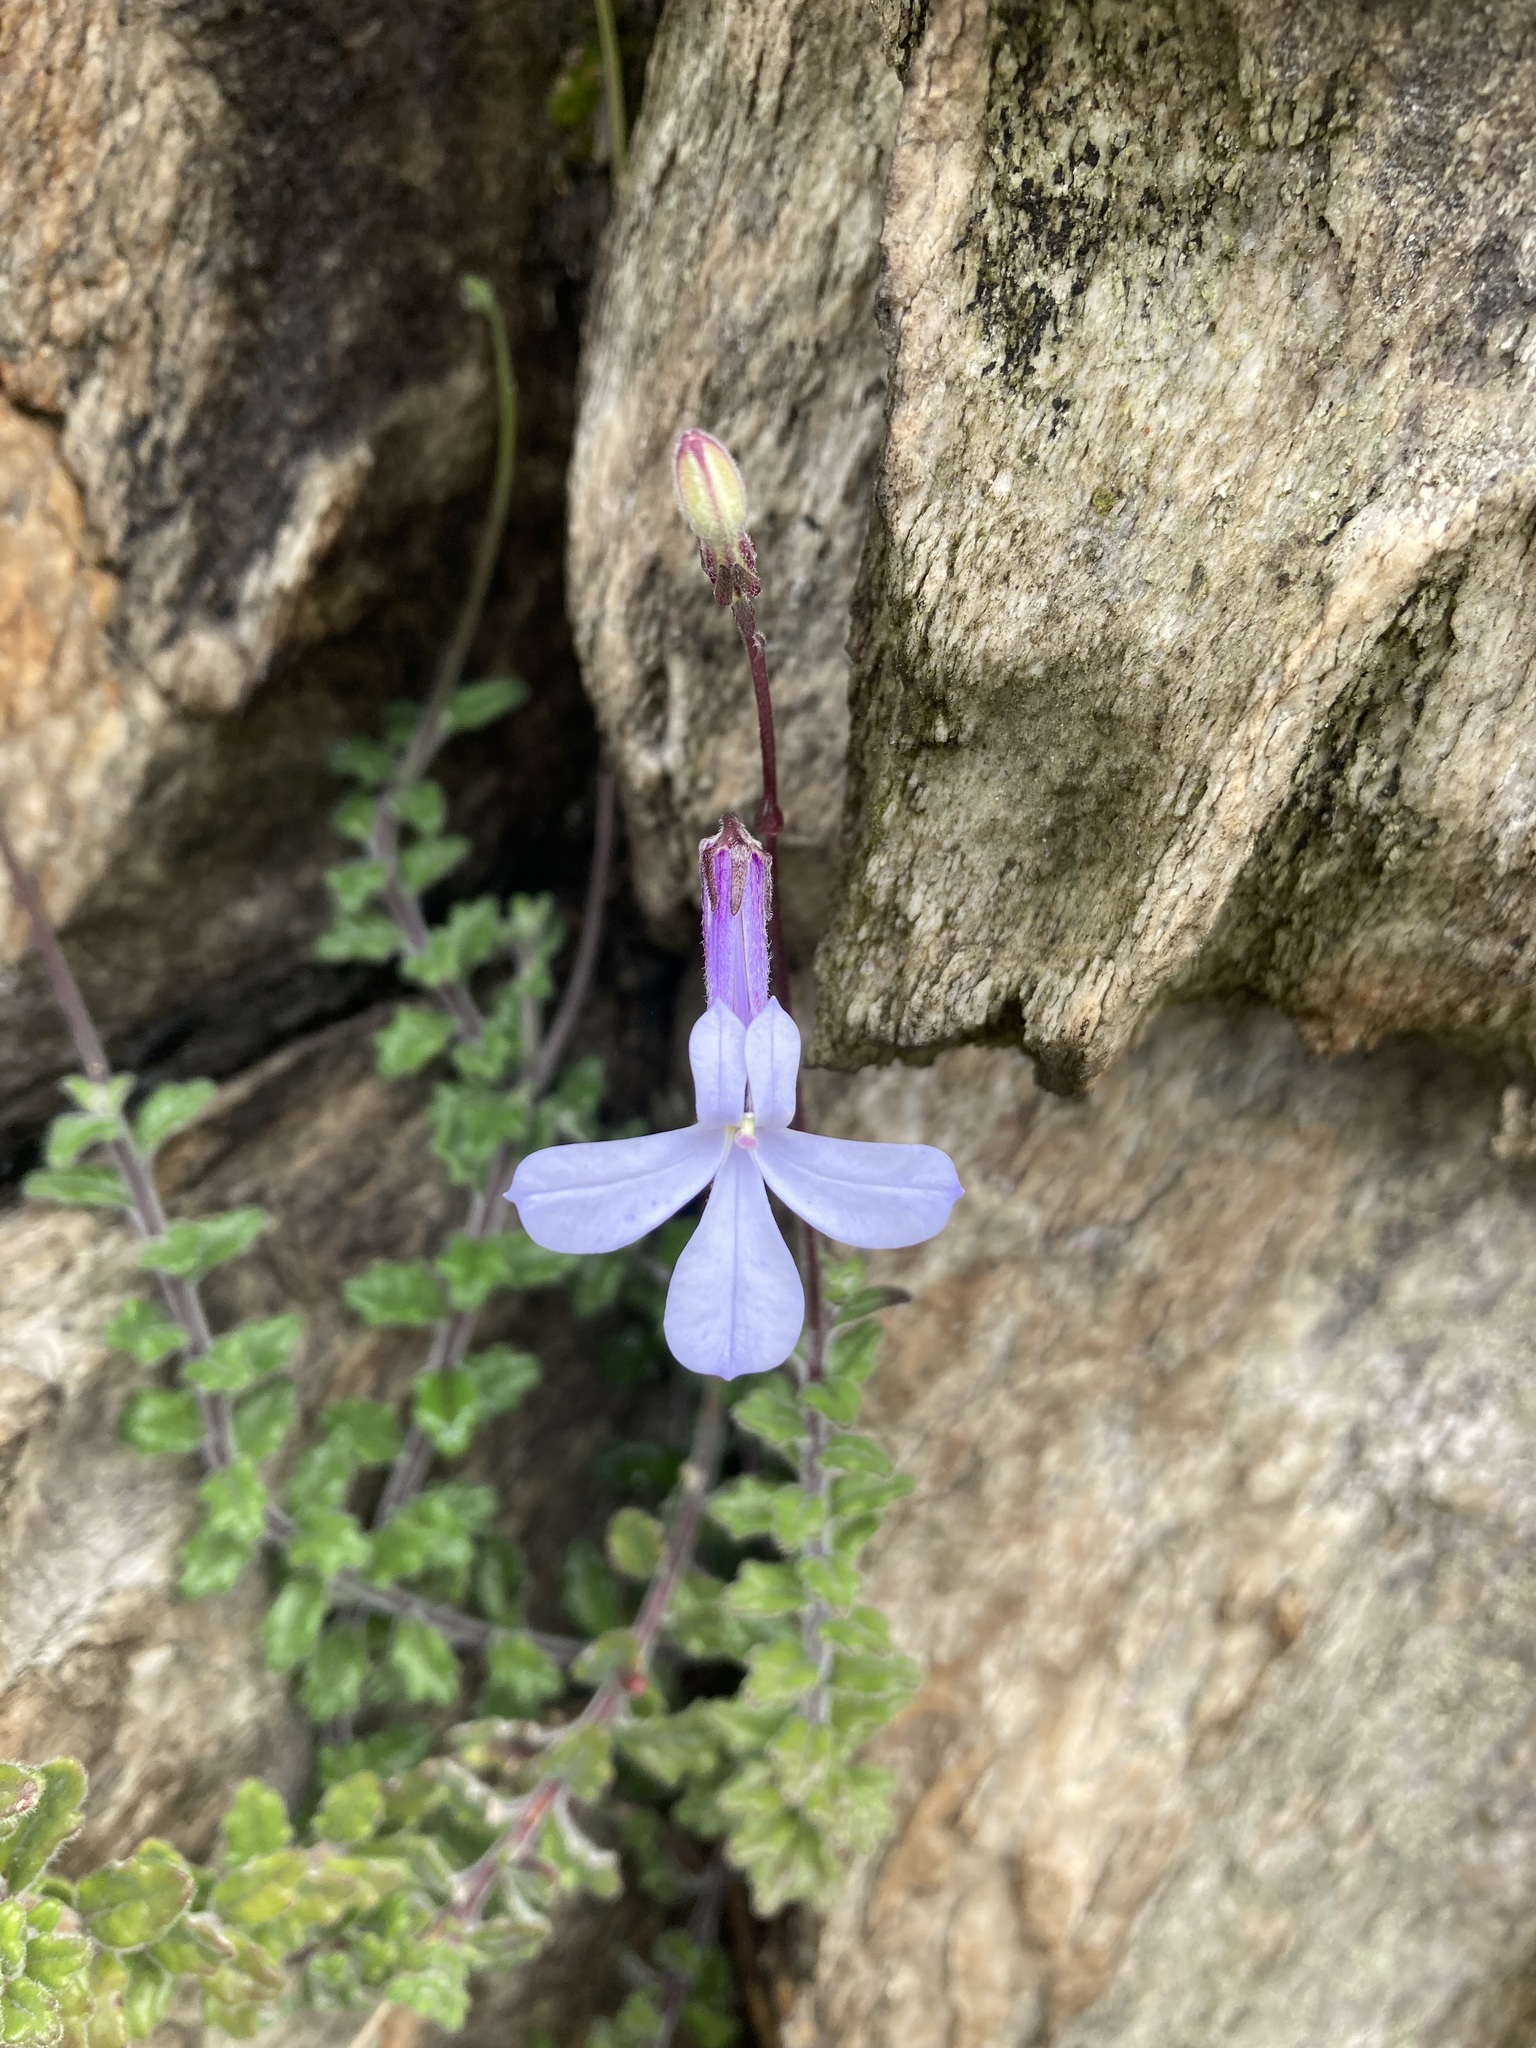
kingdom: Plantae
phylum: Tracheophyta
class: Magnoliopsida
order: Asterales
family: Campanulaceae
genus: Lobelia
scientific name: Lobelia dichroma
